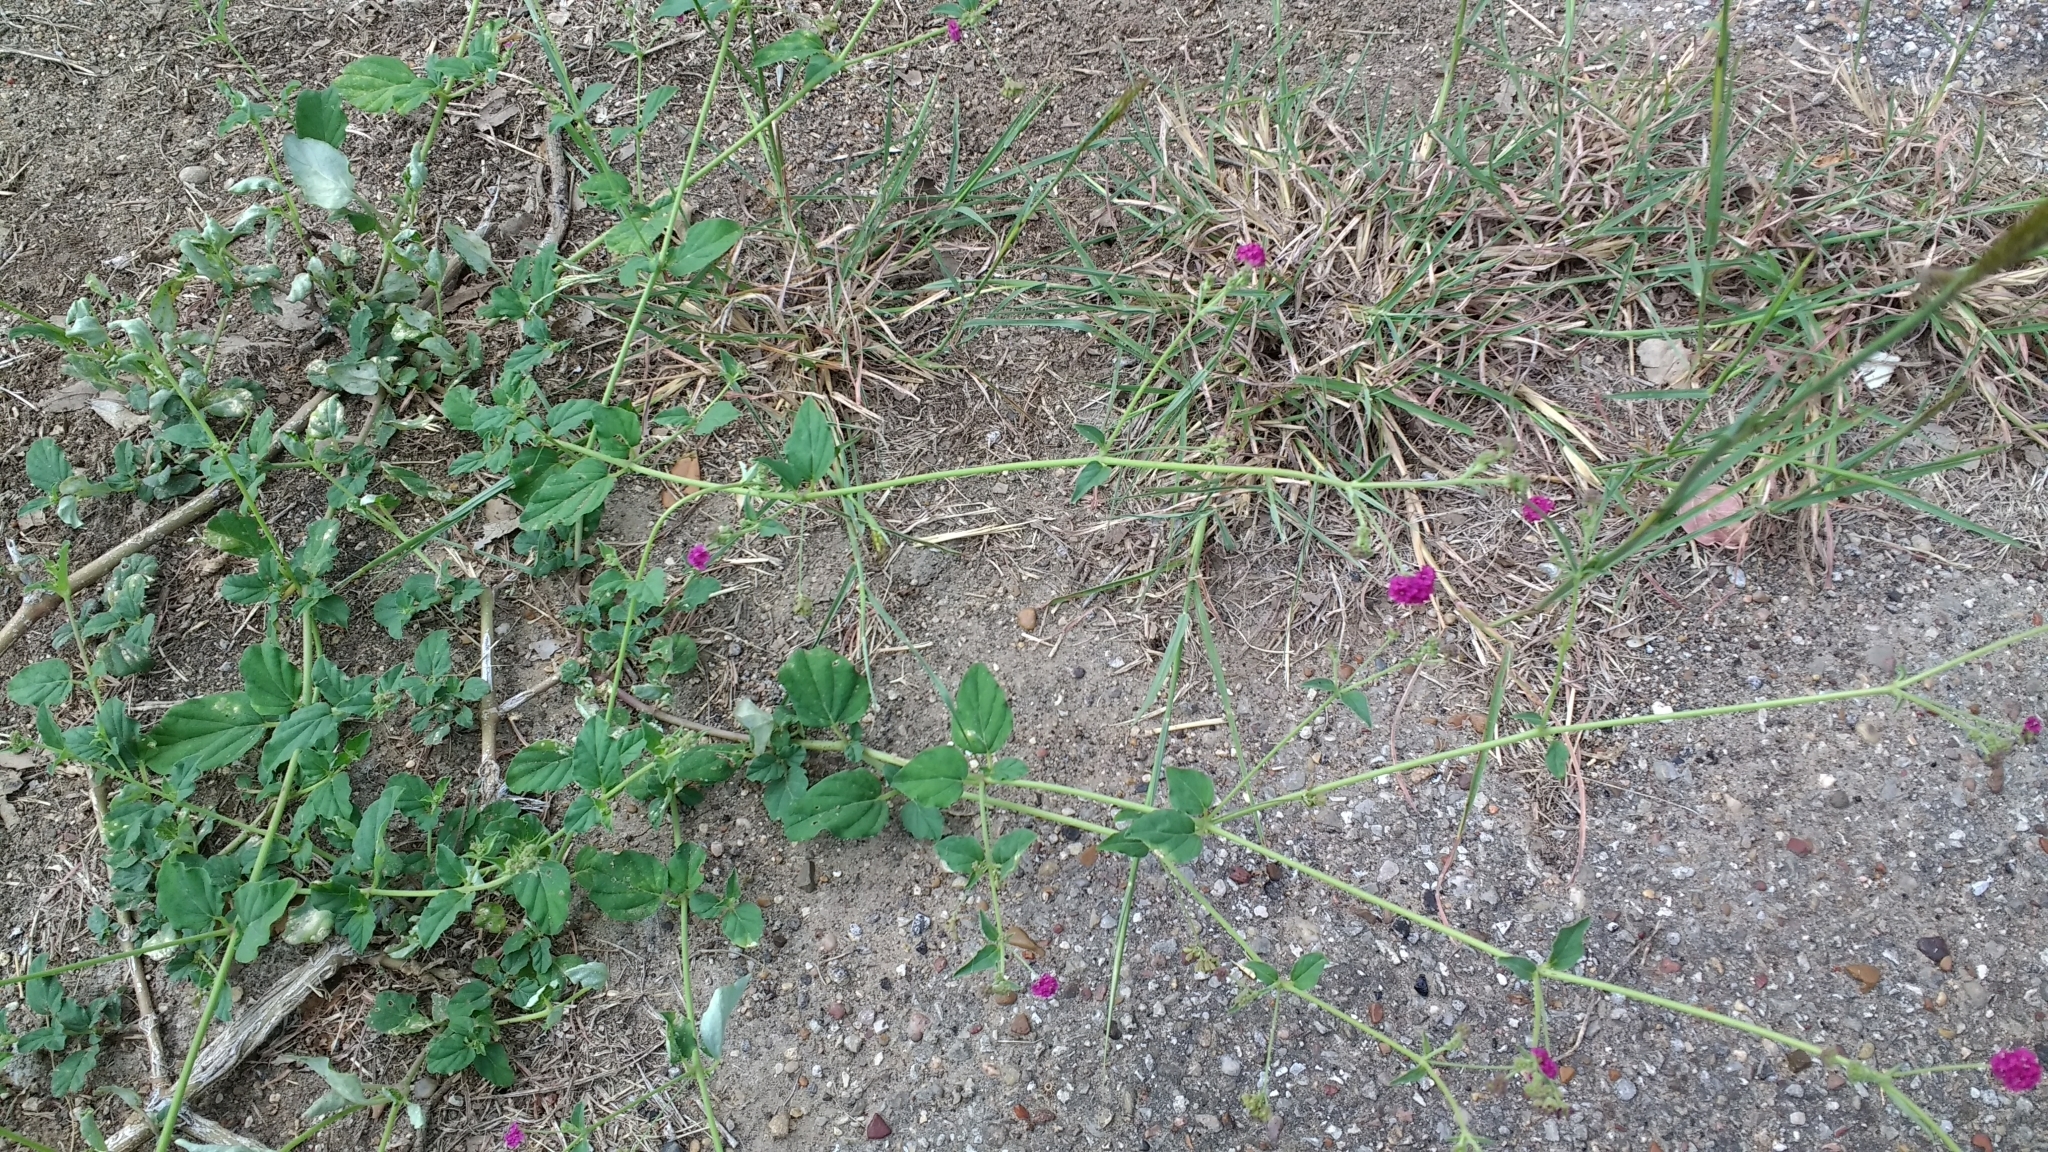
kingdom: Plantae
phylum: Tracheophyta
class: Magnoliopsida
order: Caryophyllales
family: Nyctaginaceae
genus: Boerhavia
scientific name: Boerhavia coccinea
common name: Scarlet spiderling
